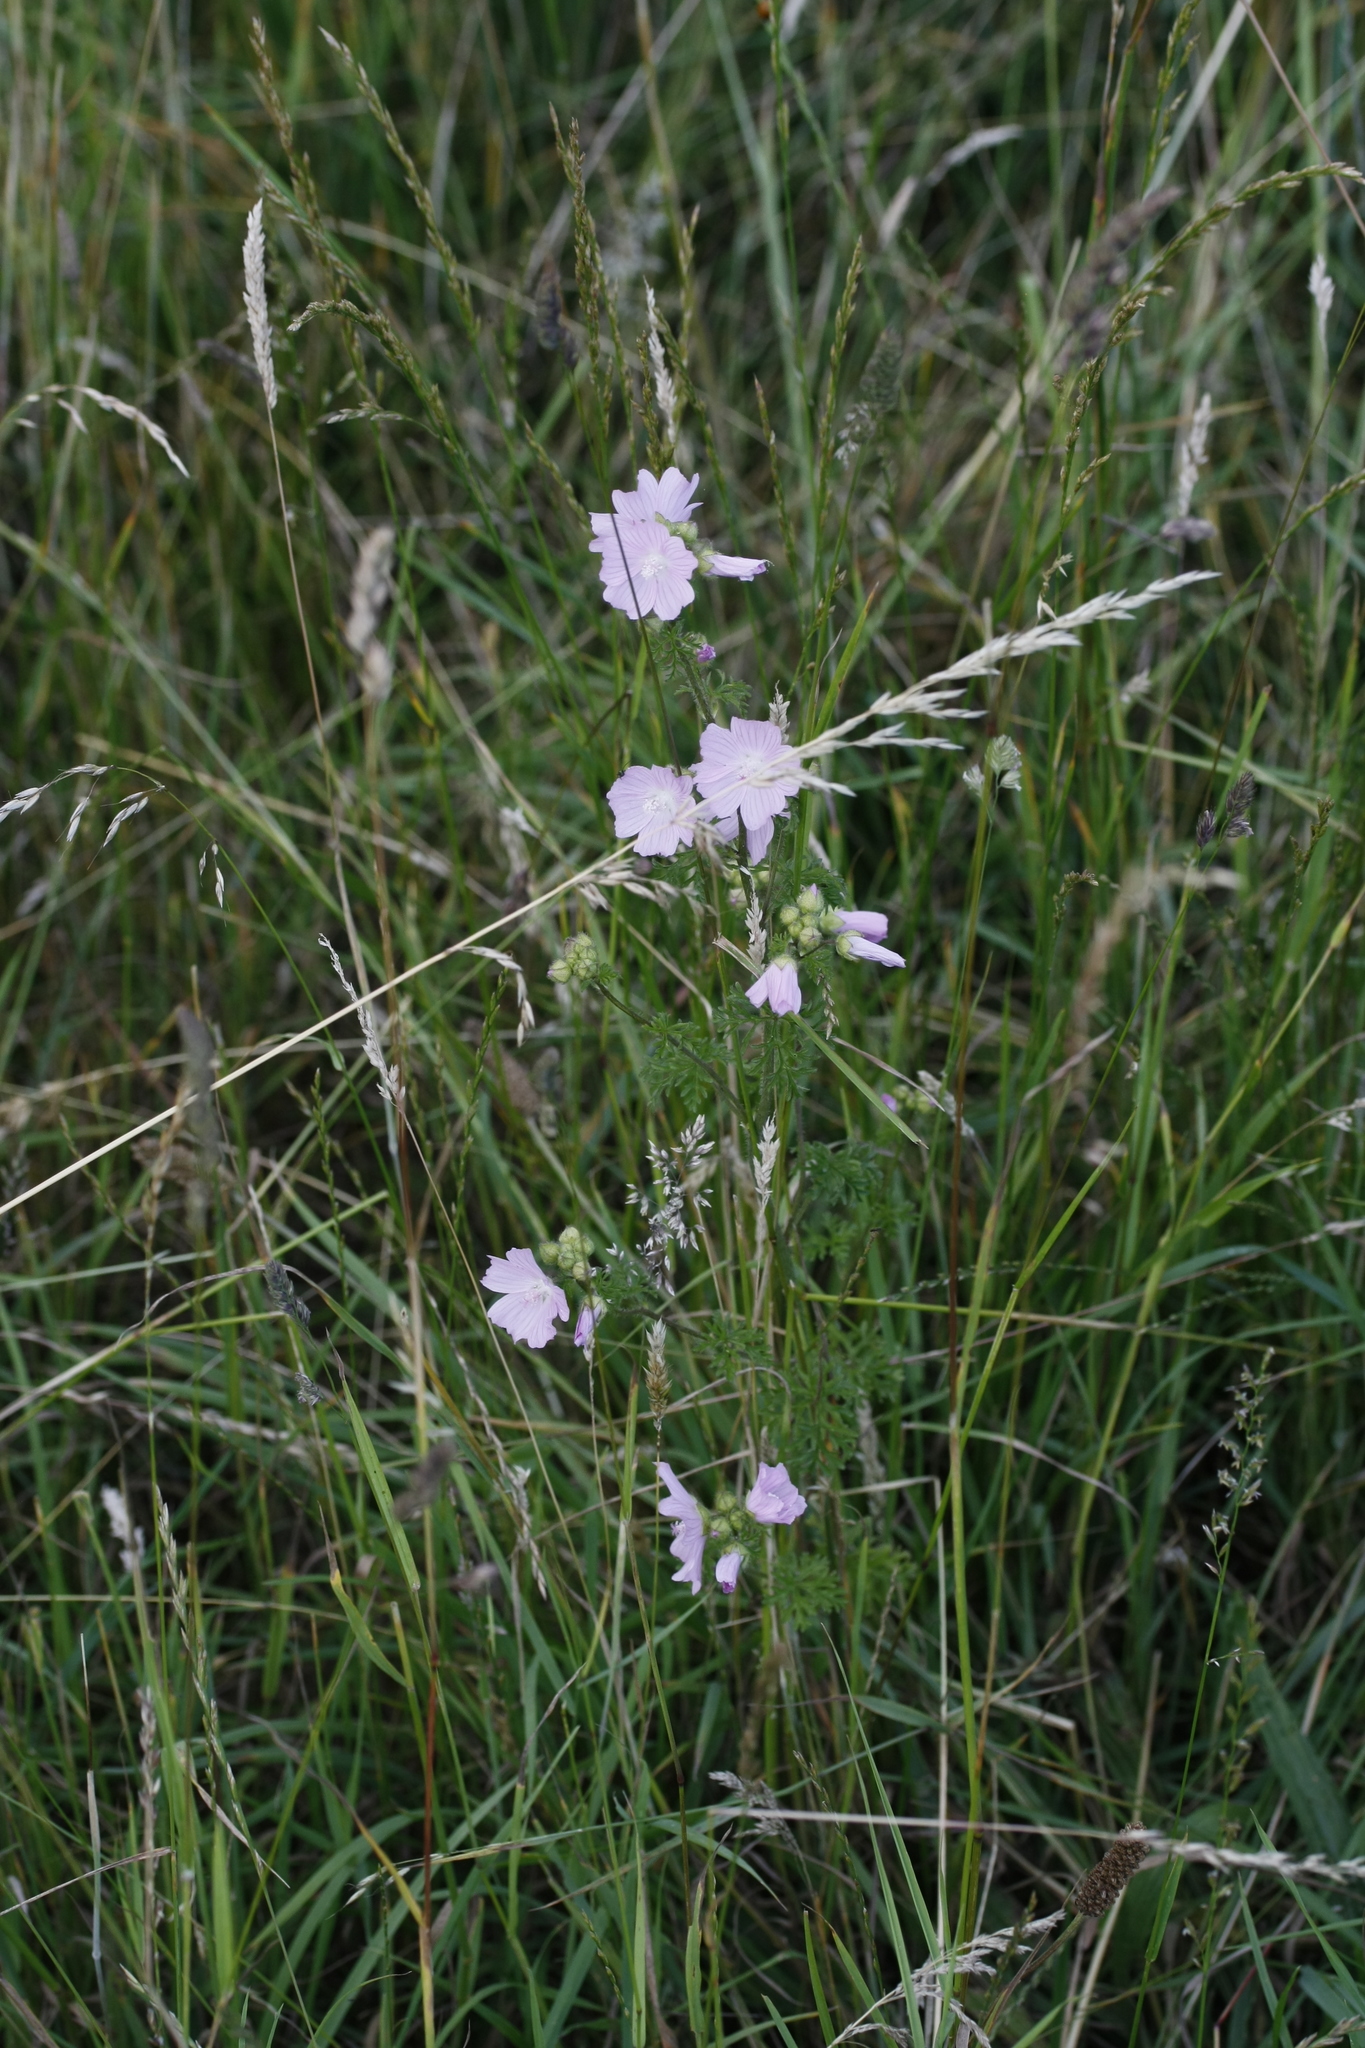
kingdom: Plantae
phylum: Tracheophyta
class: Magnoliopsida
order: Malvales
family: Malvaceae
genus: Malva
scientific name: Malva moschata
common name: Musk mallow
